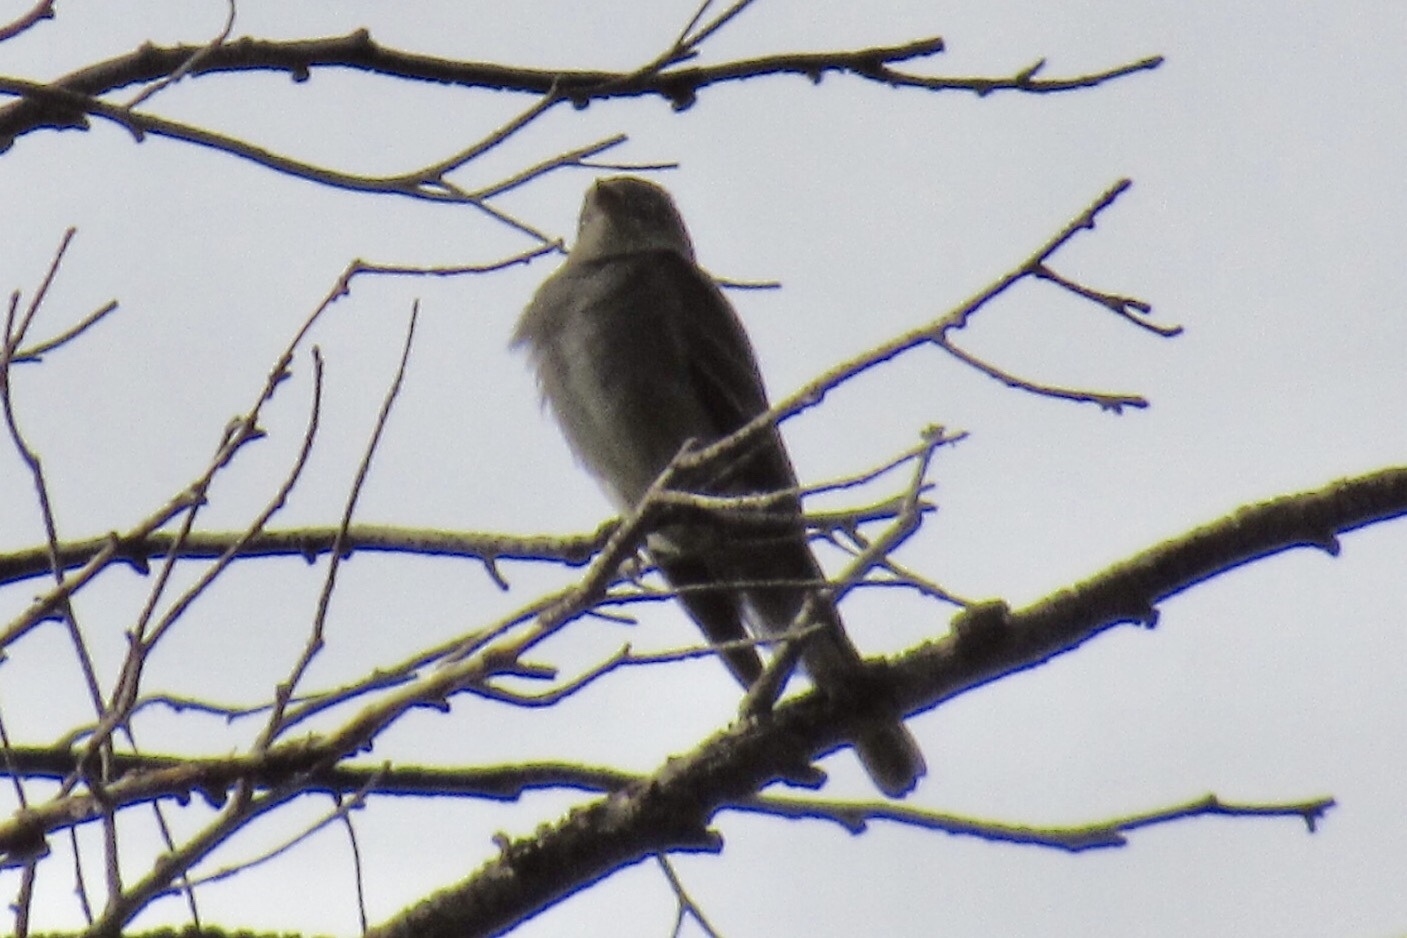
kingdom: Animalia
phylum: Chordata
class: Aves
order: Passeriformes
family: Tyrannidae
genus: Contopus
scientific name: Contopus sordidulus
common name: Western wood-pewee
